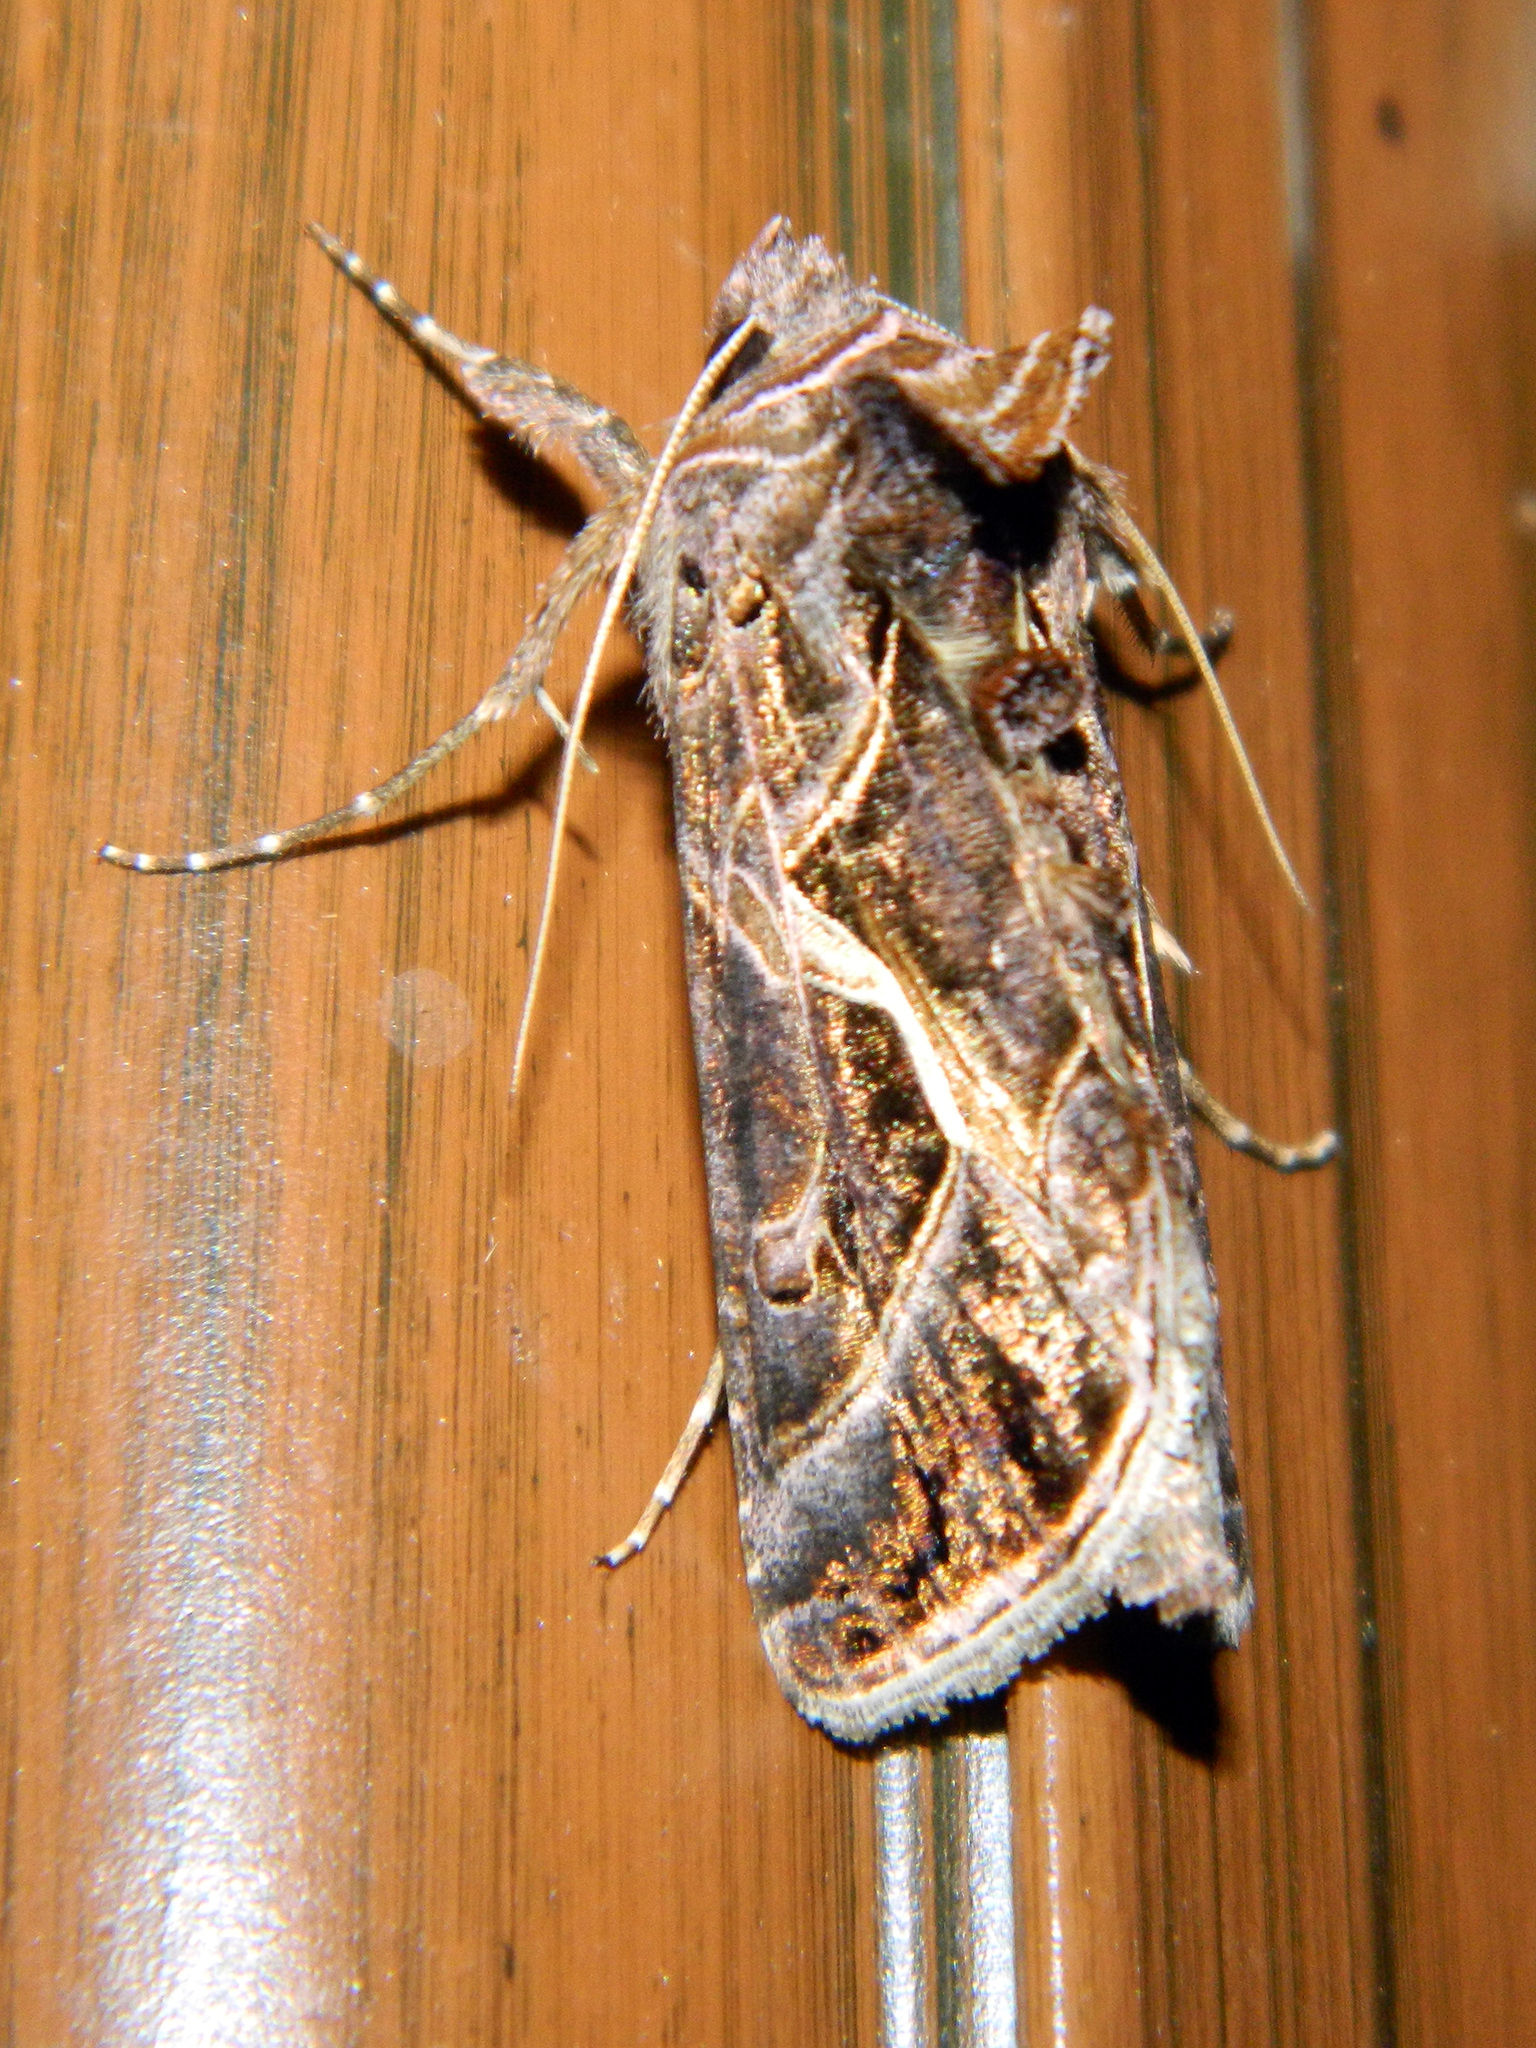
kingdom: Animalia
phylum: Arthropoda
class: Insecta
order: Lepidoptera
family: Noctuidae
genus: Autographa
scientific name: Autographa flagellum
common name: Silver whip moth
